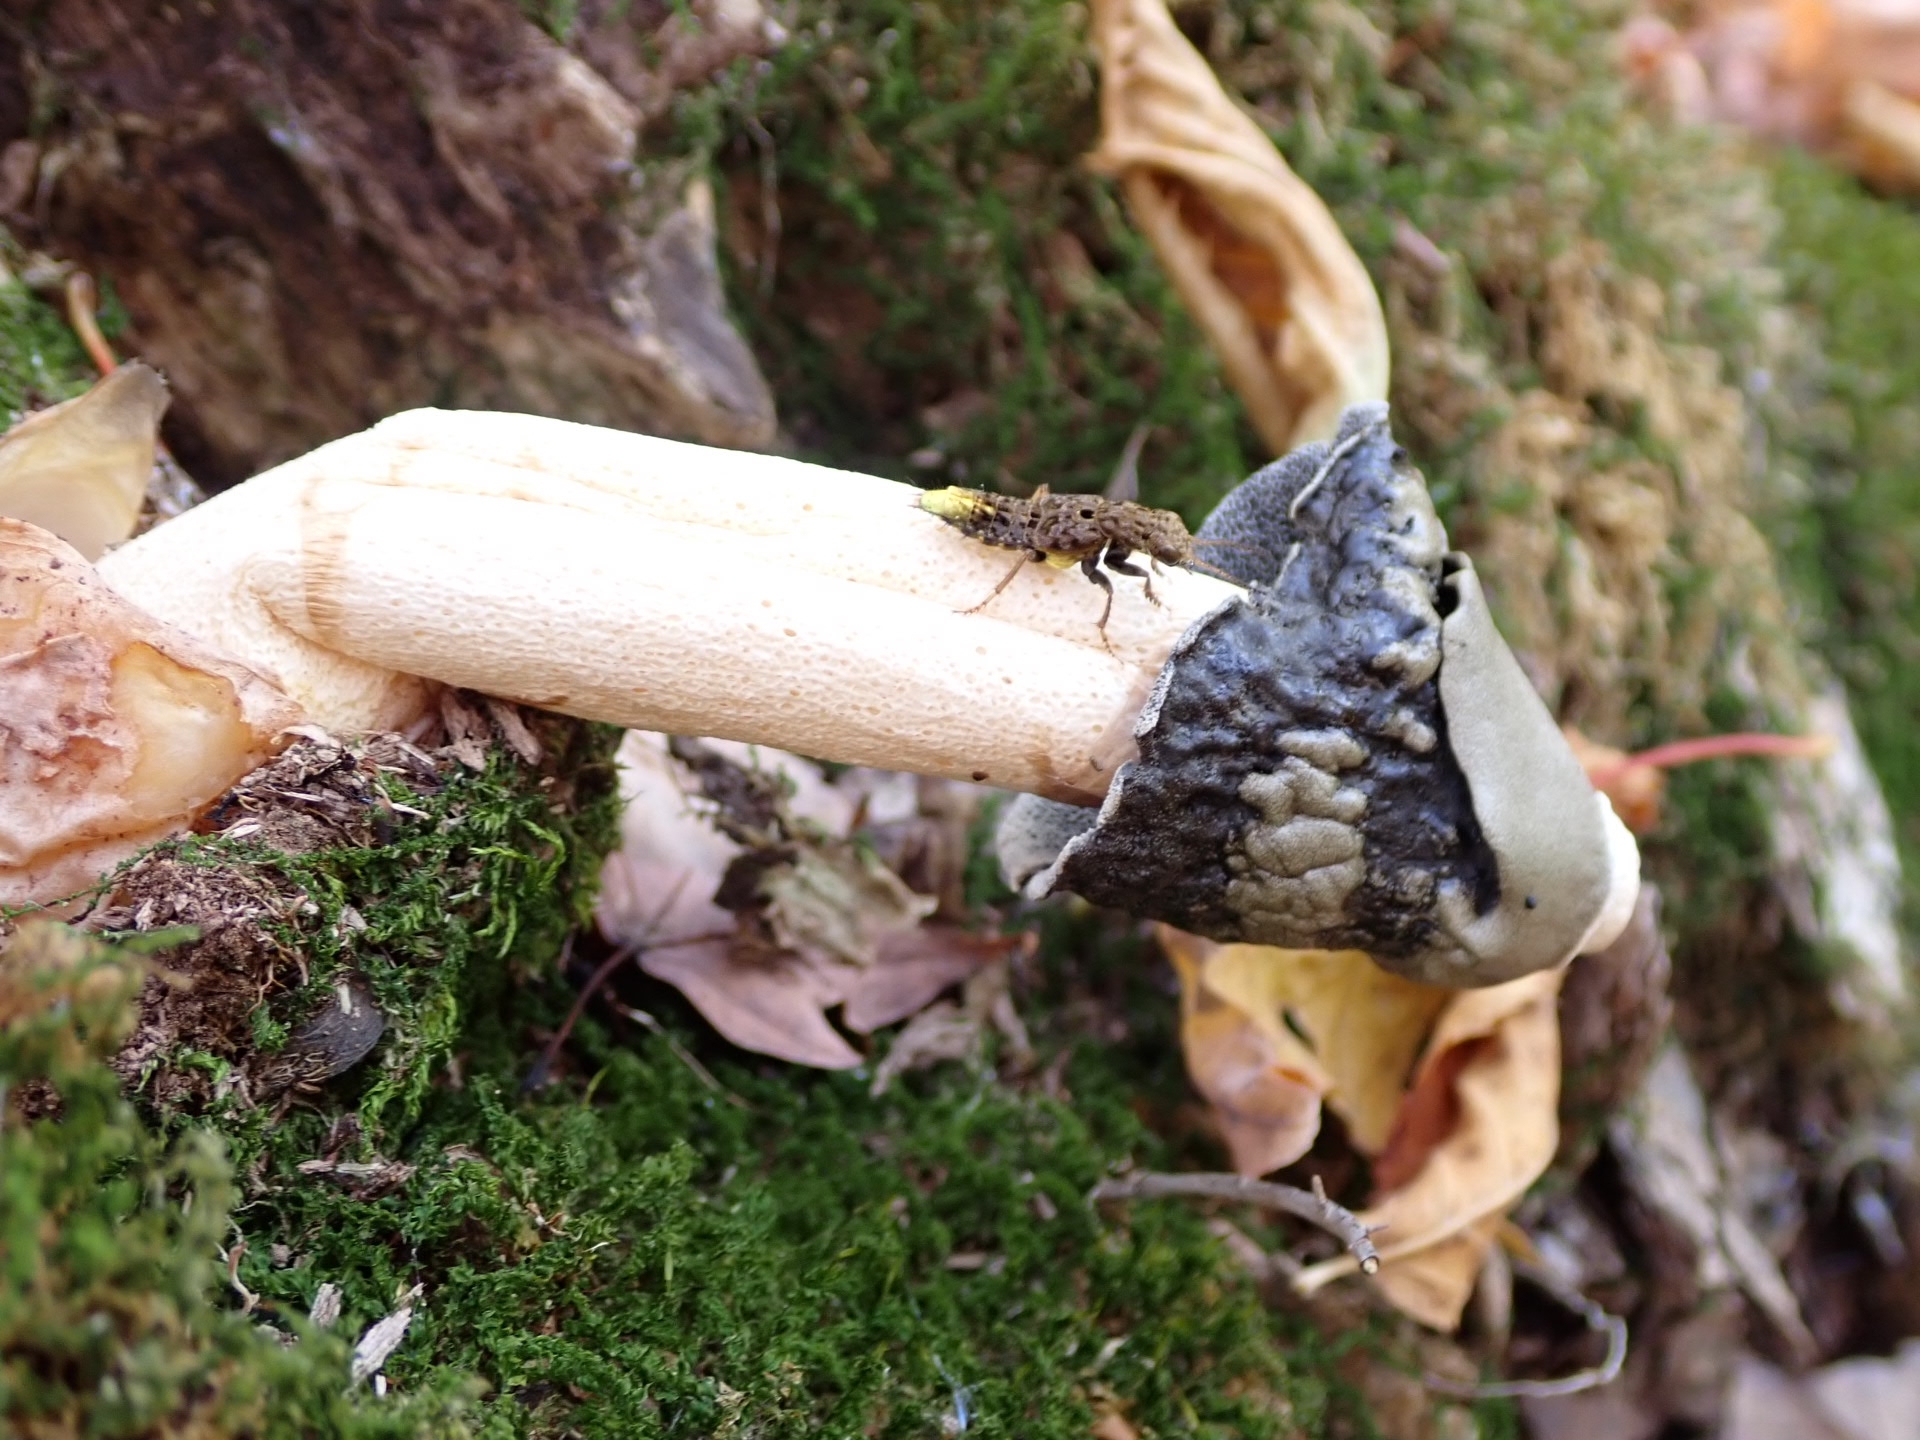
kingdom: Animalia
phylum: Arthropoda
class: Insecta
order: Coleoptera
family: Staphylinidae
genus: Ontholestes
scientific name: Ontholestes cingulatus
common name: Gold-and-brown rove beetle
